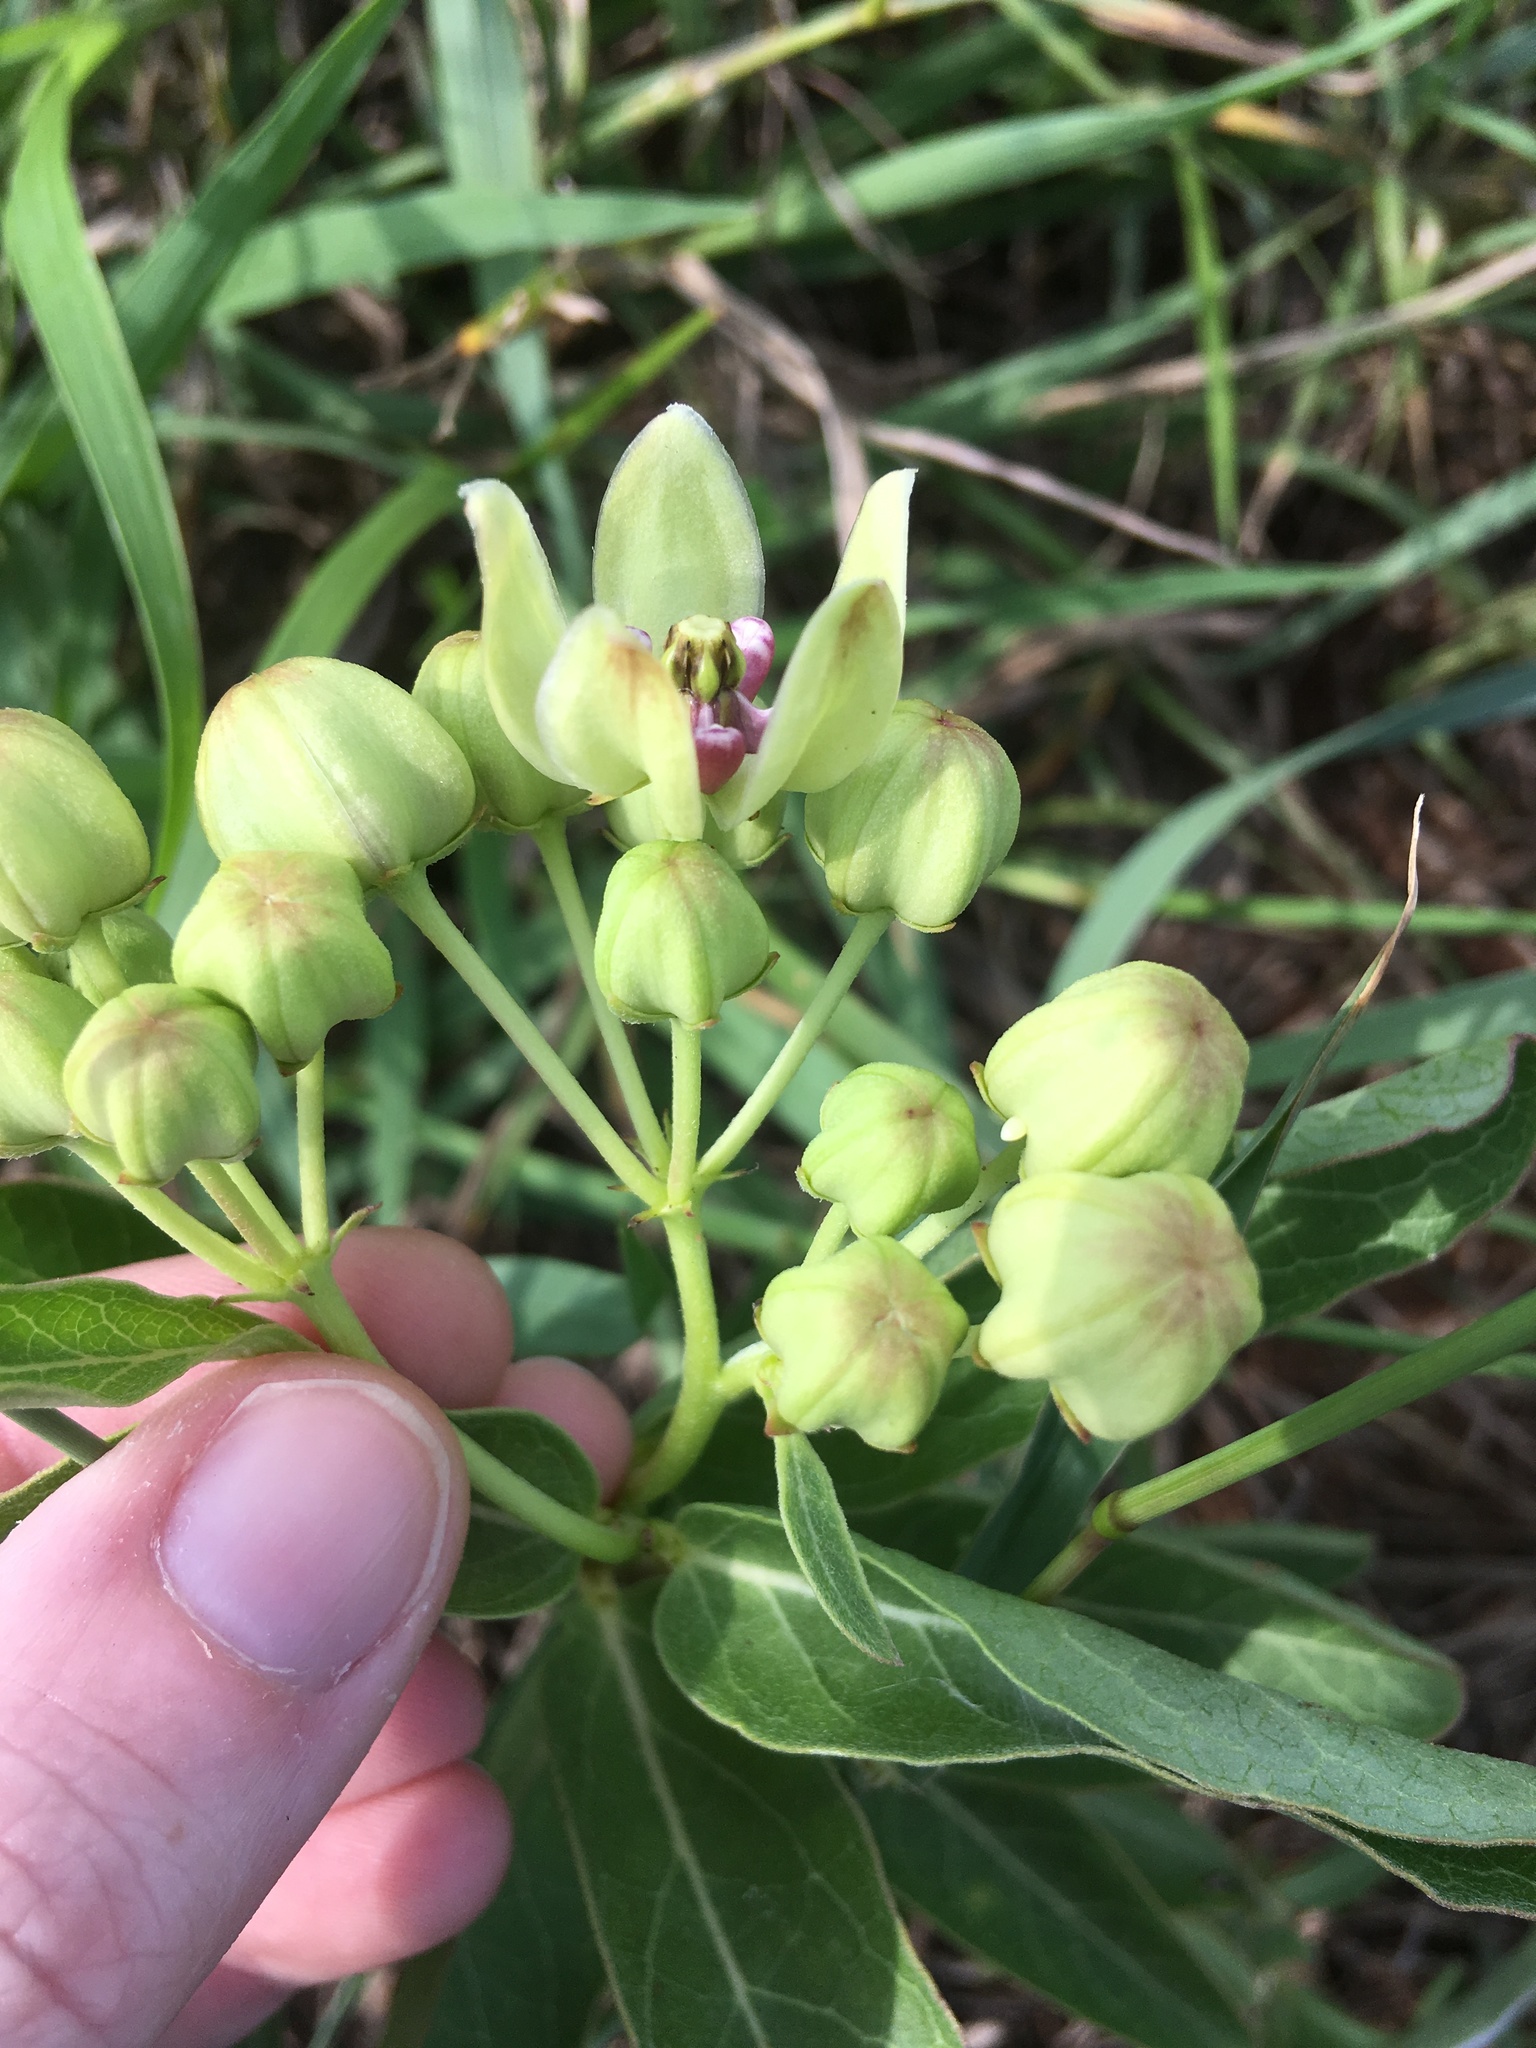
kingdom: Plantae
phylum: Tracheophyta
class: Magnoliopsida
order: Gentianales
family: Apocynaceae
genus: Asclepias
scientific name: Asclepias viridis
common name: Antelope-horns
